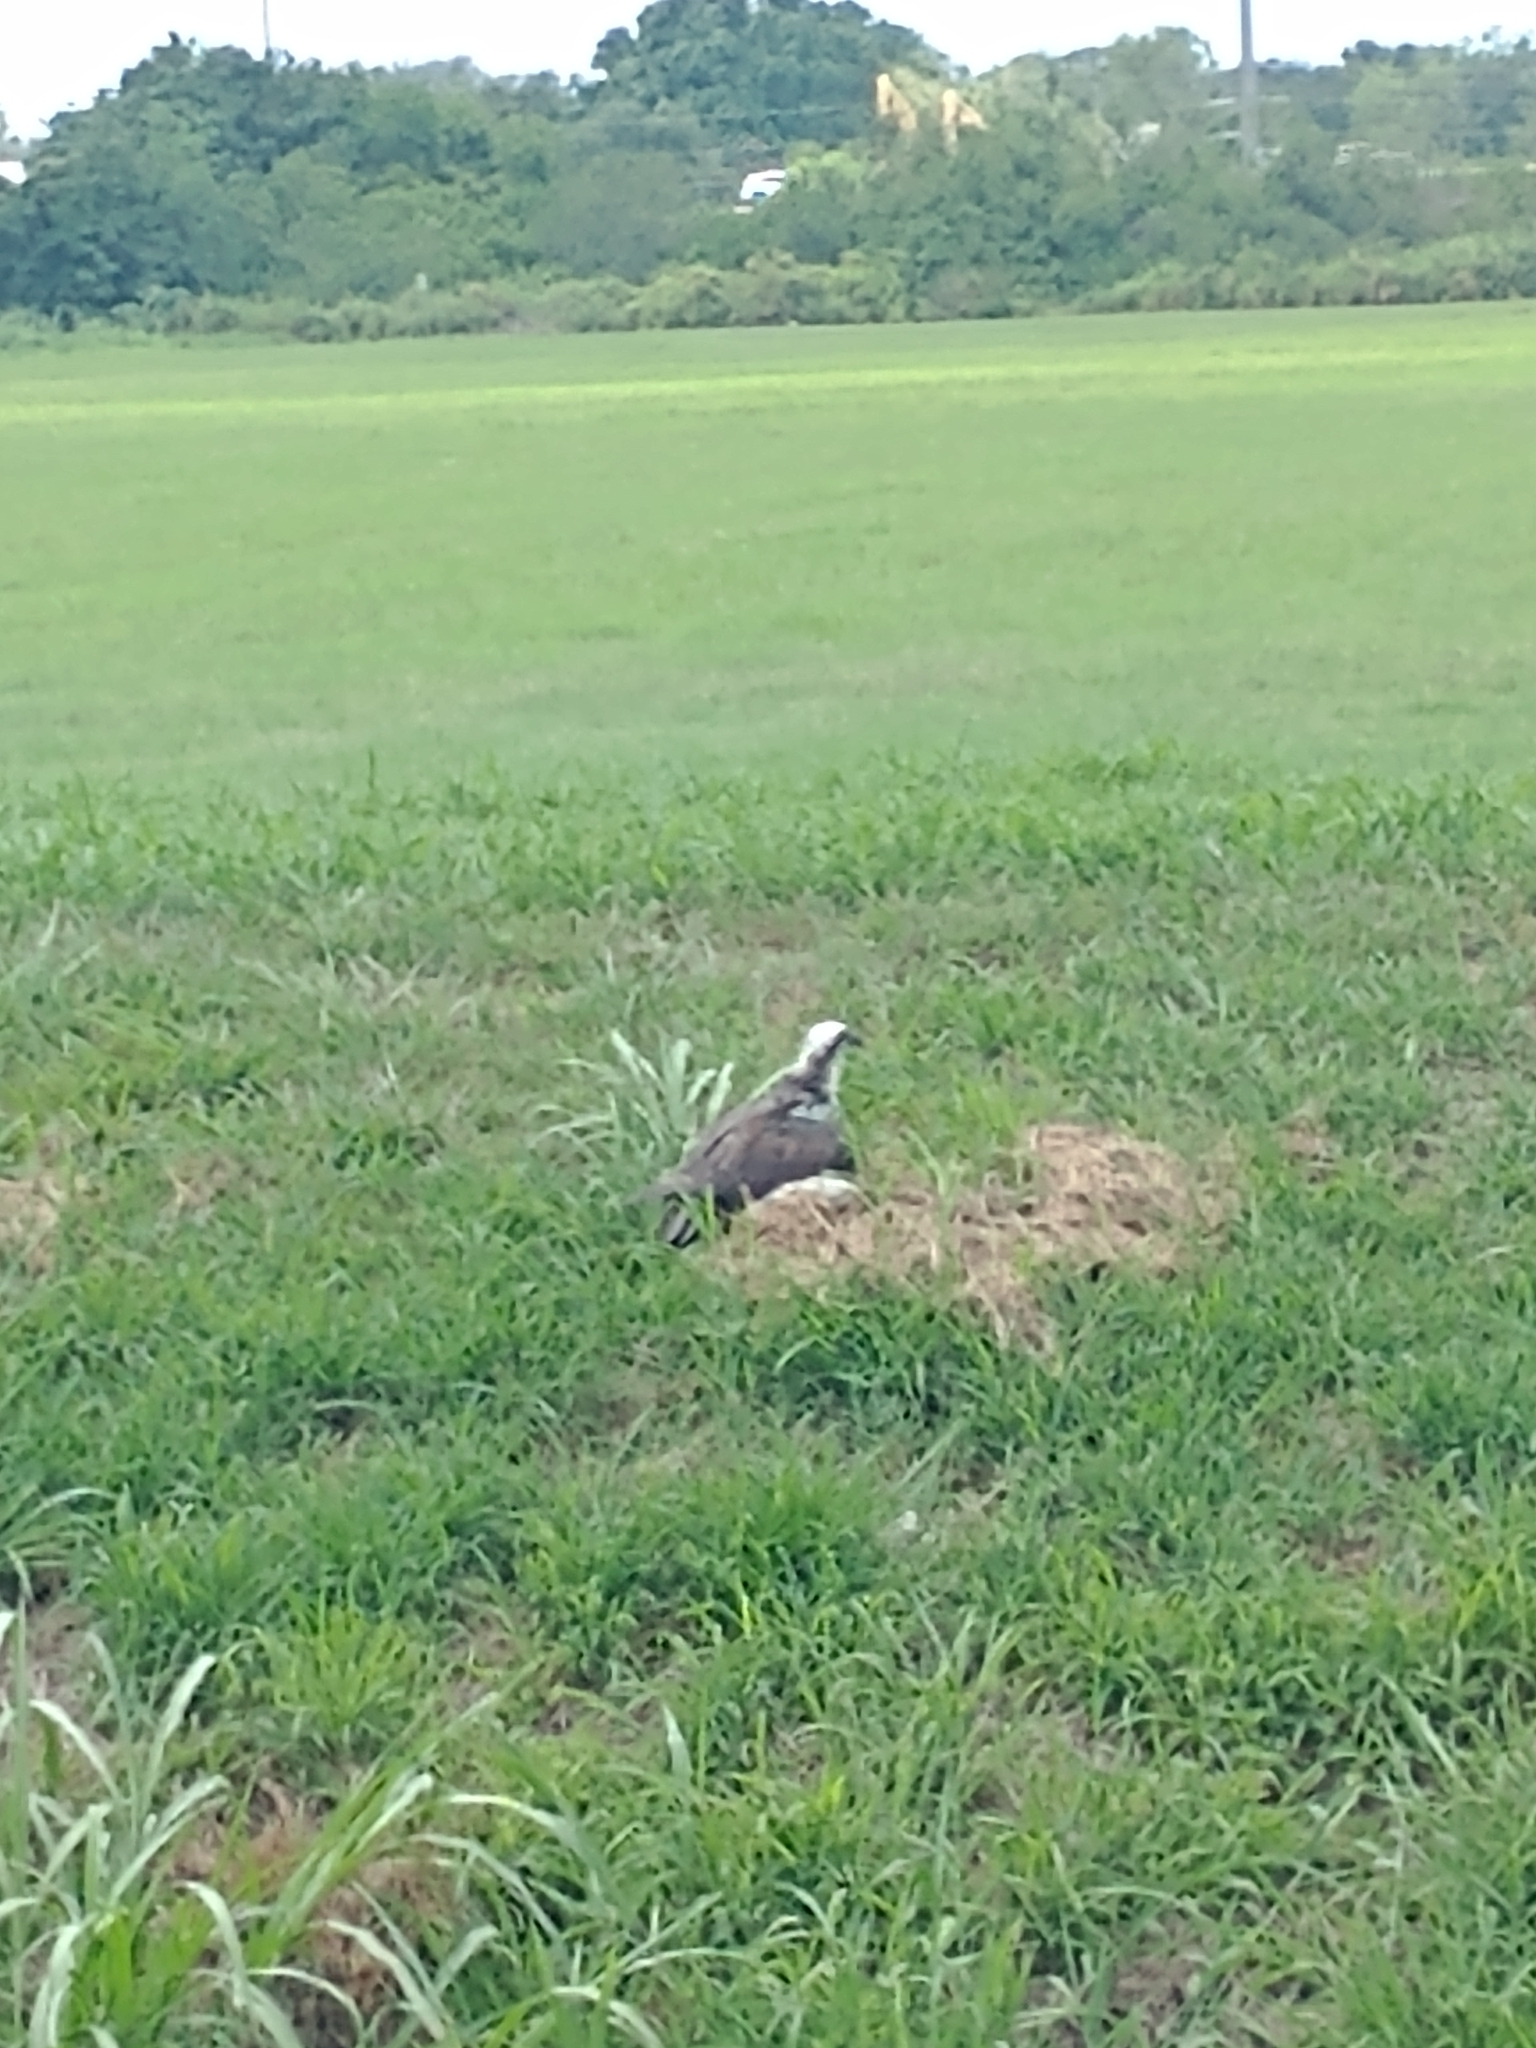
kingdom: Animalia
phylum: Chordata
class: Aves
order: Accipitriformes
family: Pandionidae
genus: Pandion
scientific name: Pandion haliaetus
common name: Osprey
